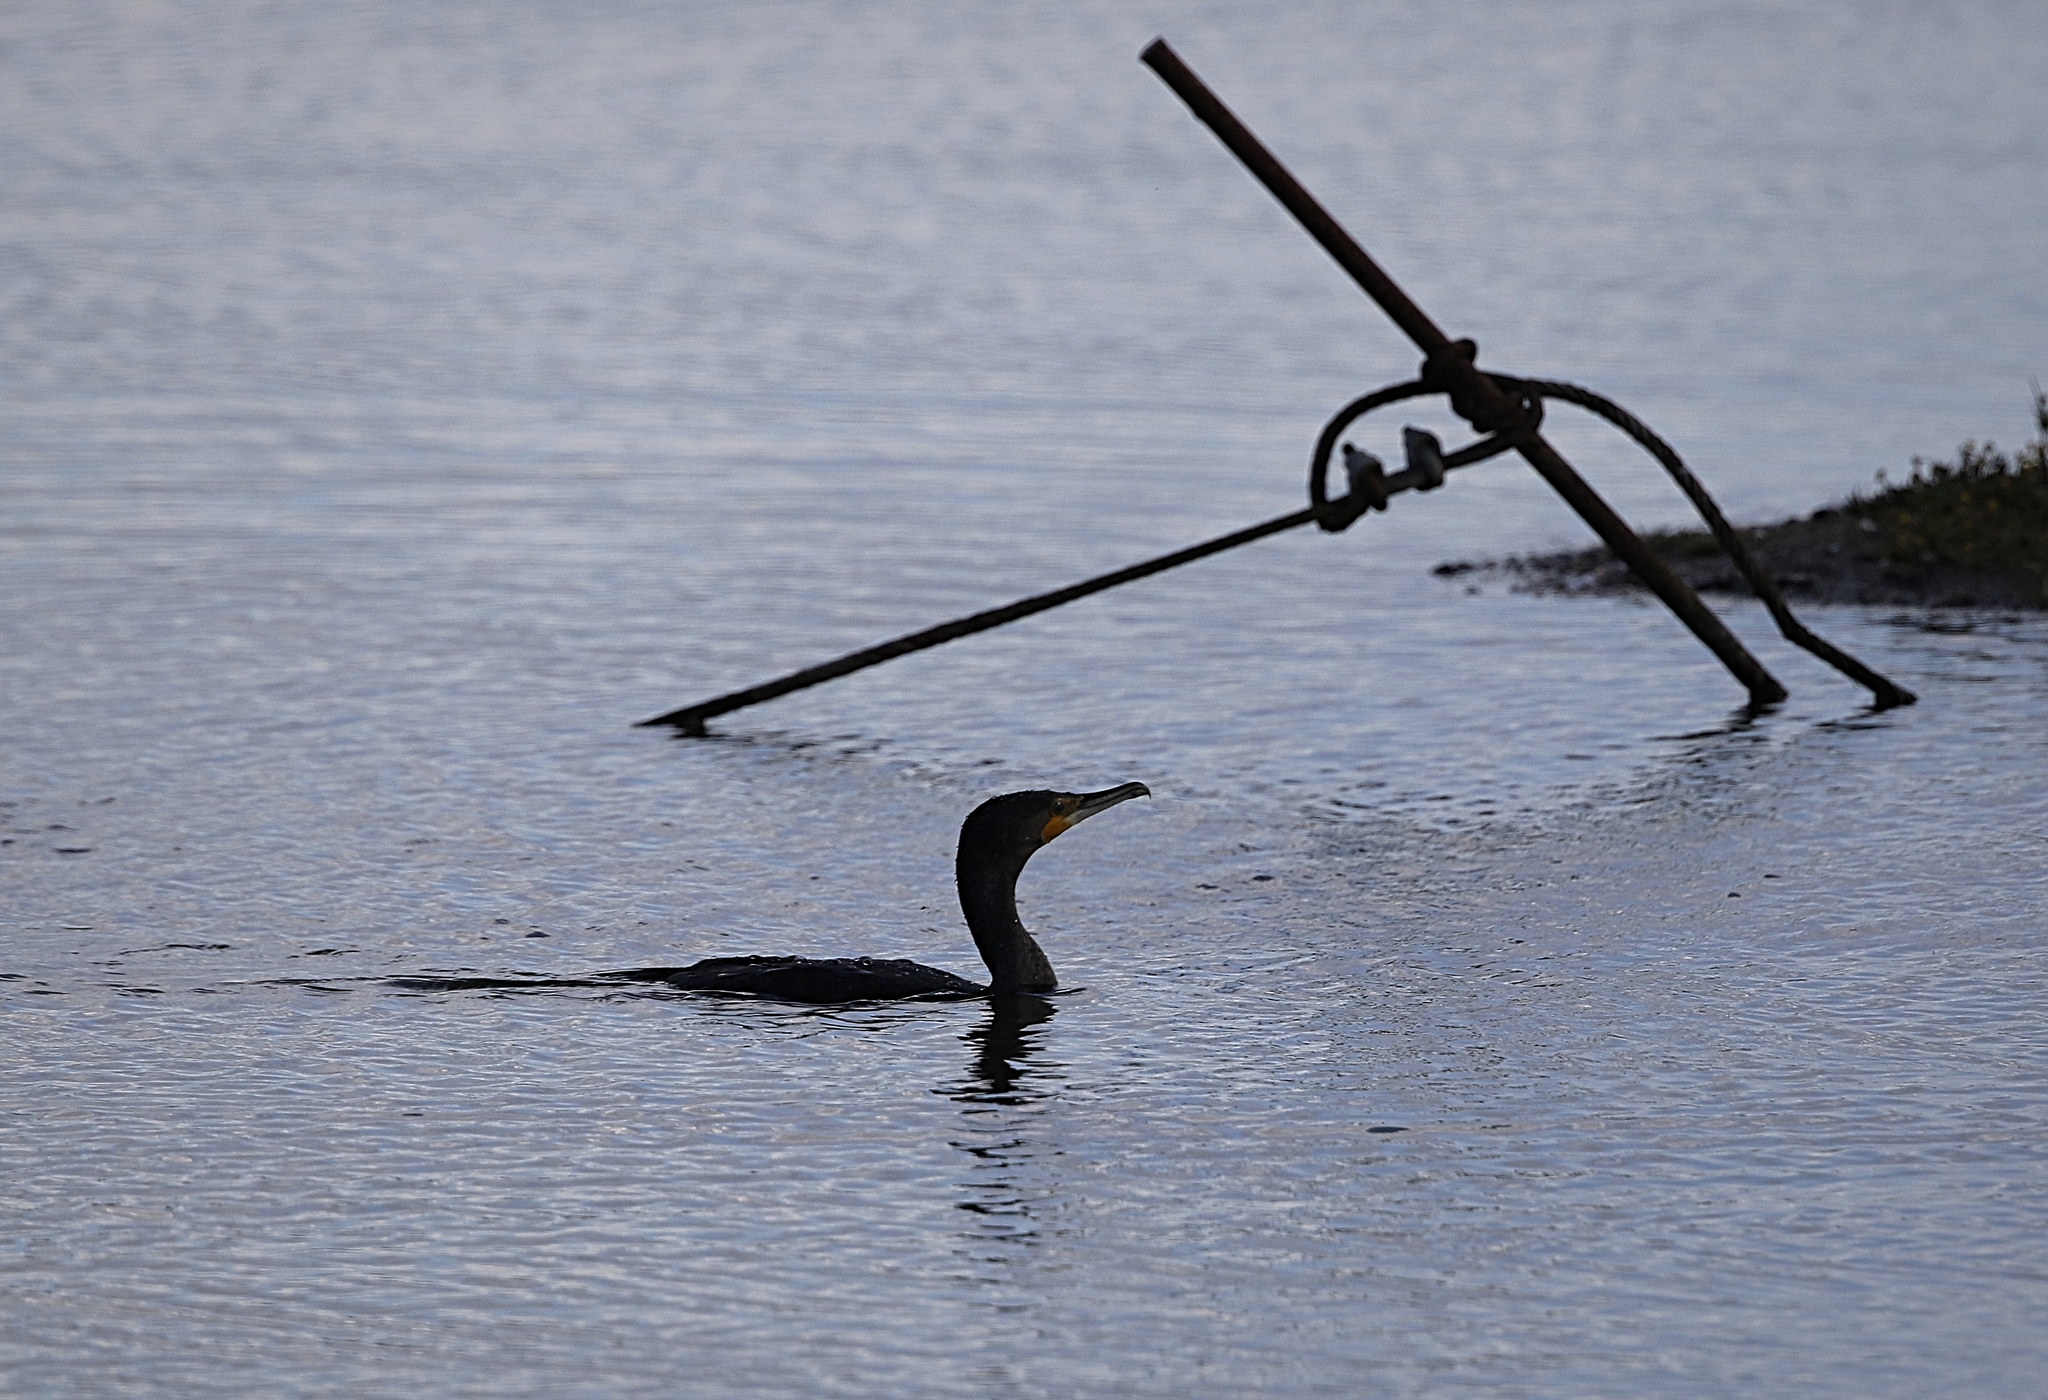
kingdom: Animalia
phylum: Chordata
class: Aves
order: Suliformes
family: Phalacrocoracidae
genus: Phalacrocorax
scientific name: Phalacrocorax carbo
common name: Great cormorant
